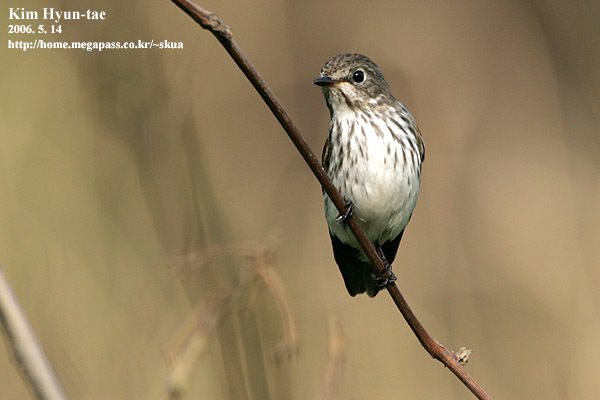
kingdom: Animalia
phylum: Chordata
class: Aves
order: Passeriformes
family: Muscicapidae
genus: Muscicapa
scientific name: Muscicapa griseisticta
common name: Gray-streaked flycatcher
